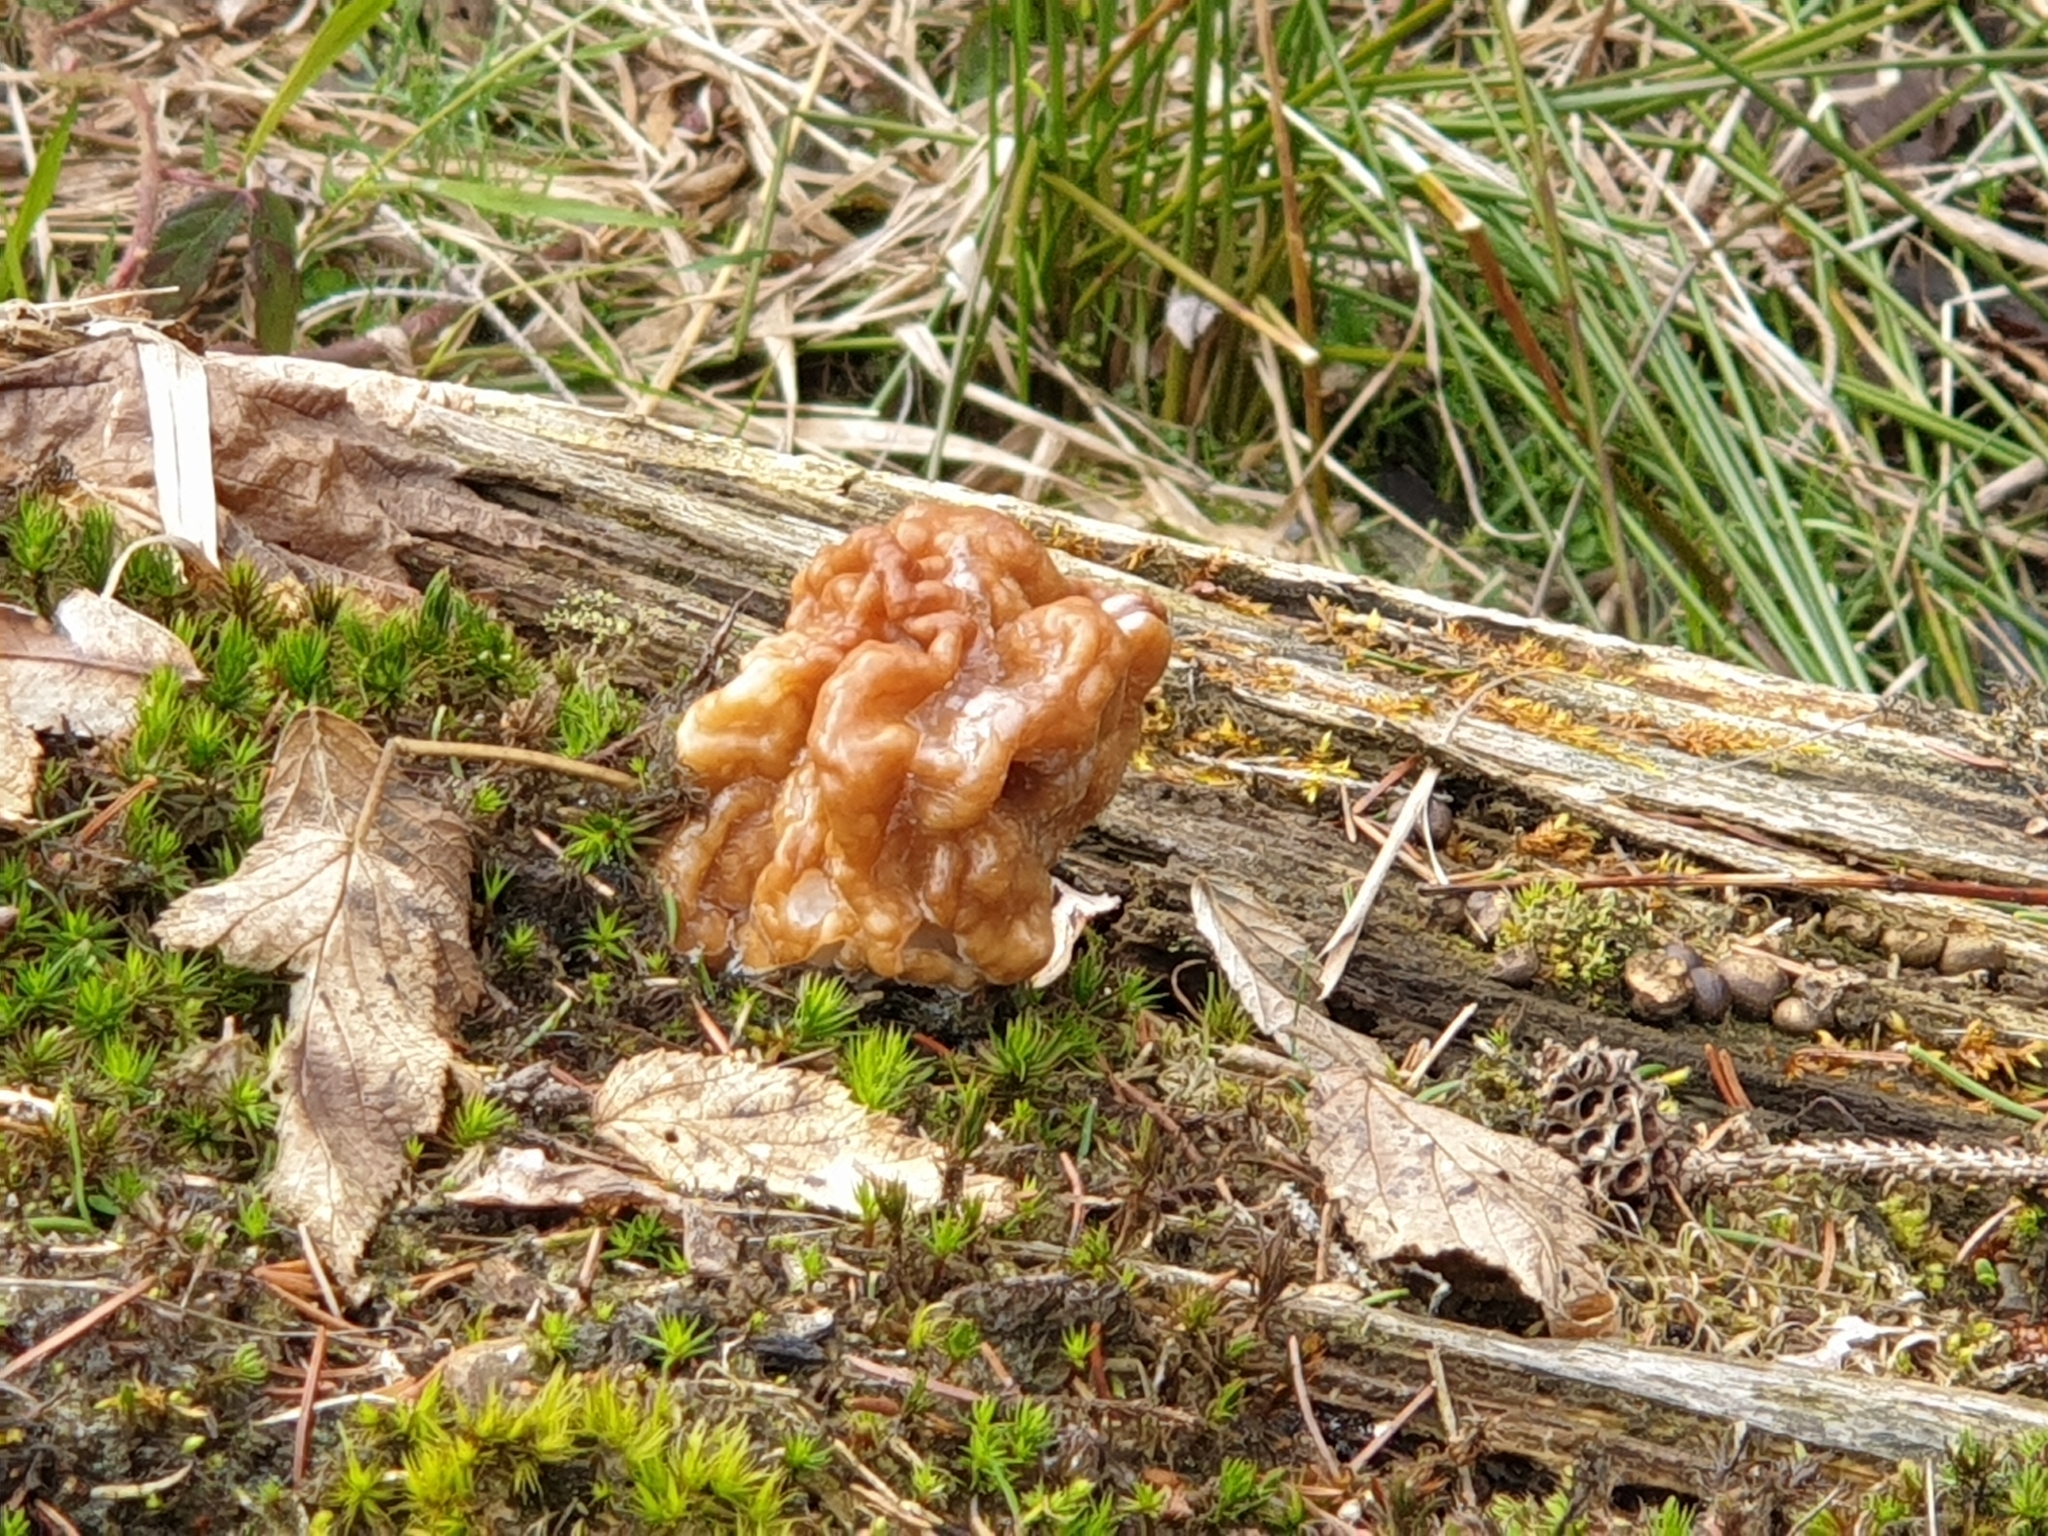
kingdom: Fungi
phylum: Ascomycota
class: Pezizomycetes
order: Pezizales
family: Discinaceae
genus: Gyromitra
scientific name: Gyromitra gigas
